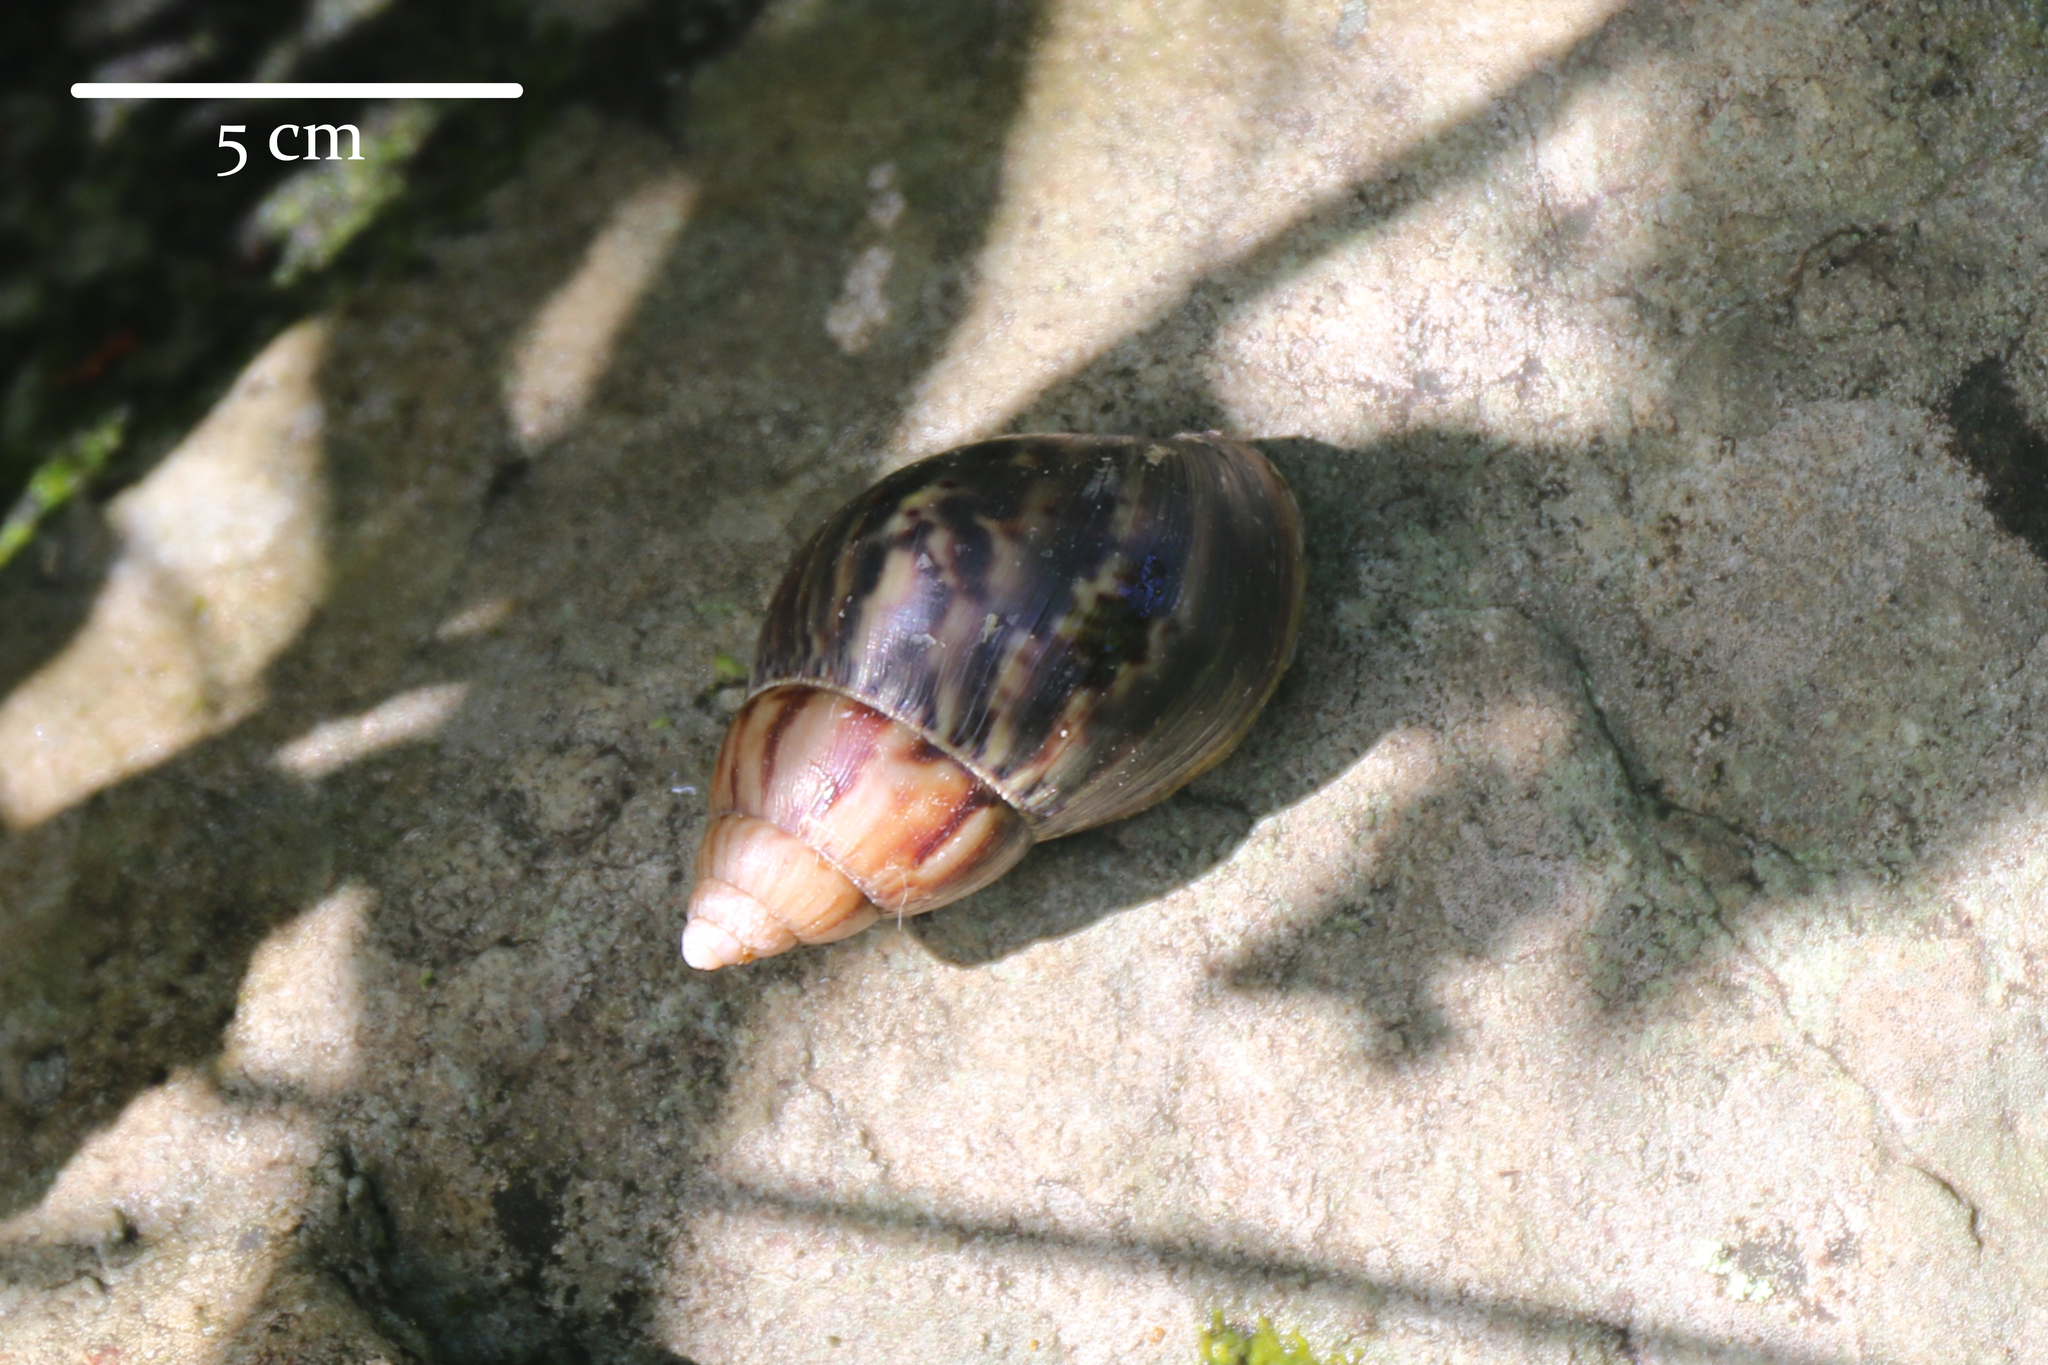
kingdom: Animalia
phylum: Mollusca
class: Gastropoda
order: Stylommatophora
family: Achatinidae
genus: Lissachatina
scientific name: Lissachatina fulica
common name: Giant african snail
